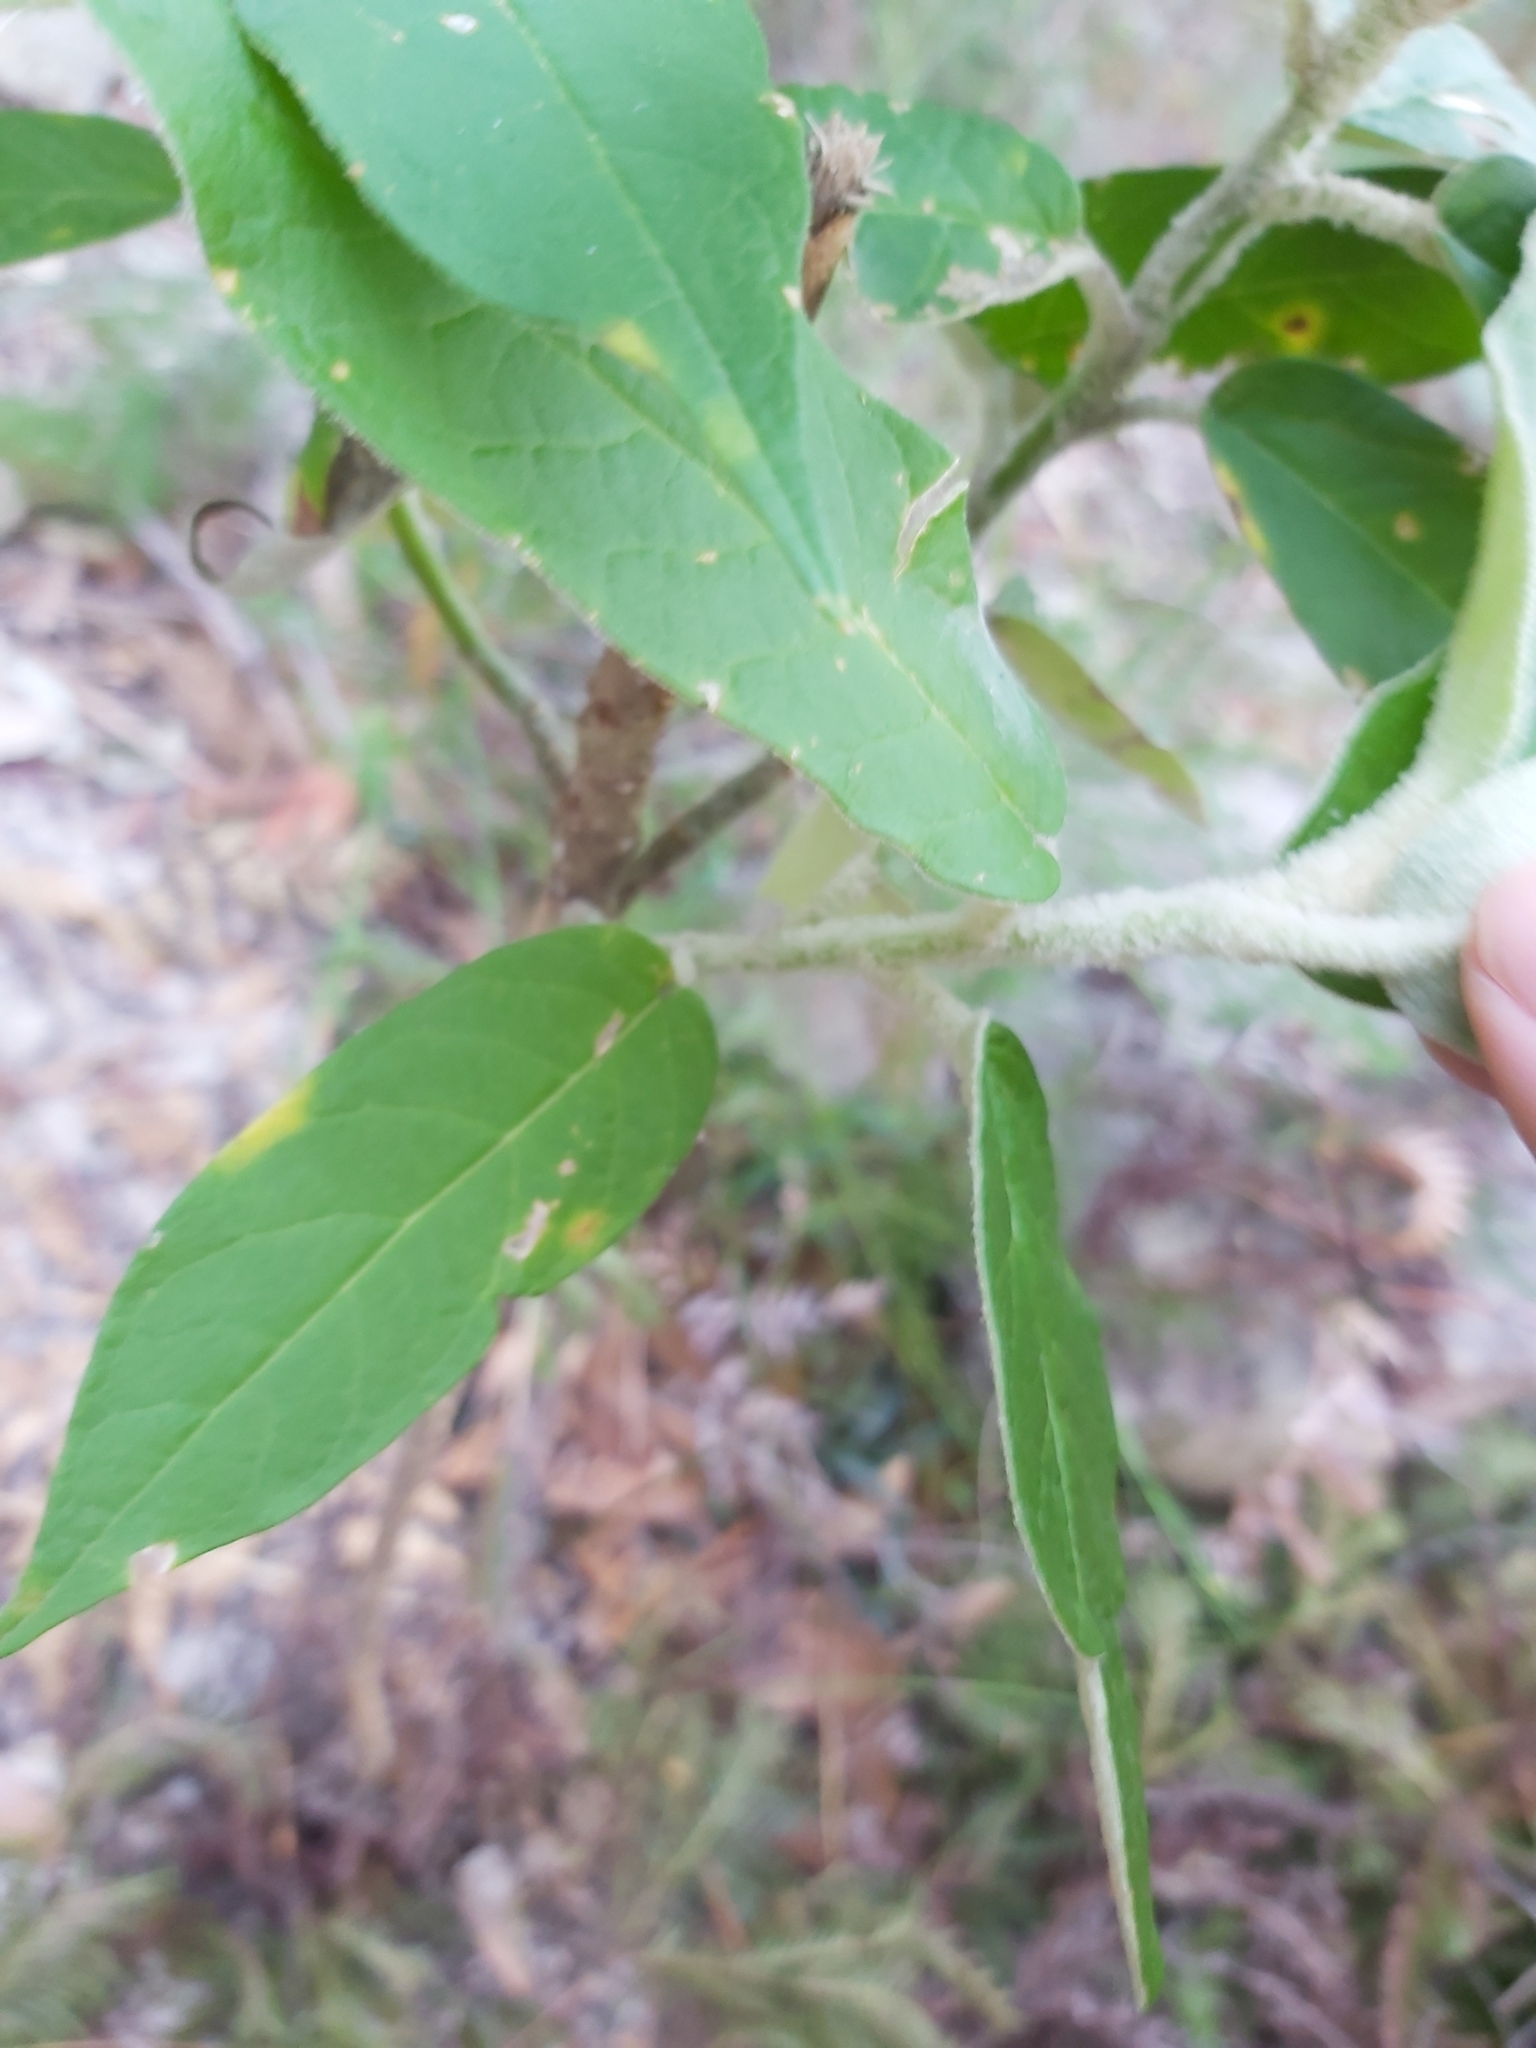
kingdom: Plantae
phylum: Tracheophyta
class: Magnoliopsida
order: Apiales
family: Araliaceae
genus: Astrotricha
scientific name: Astrotricha floccosa
